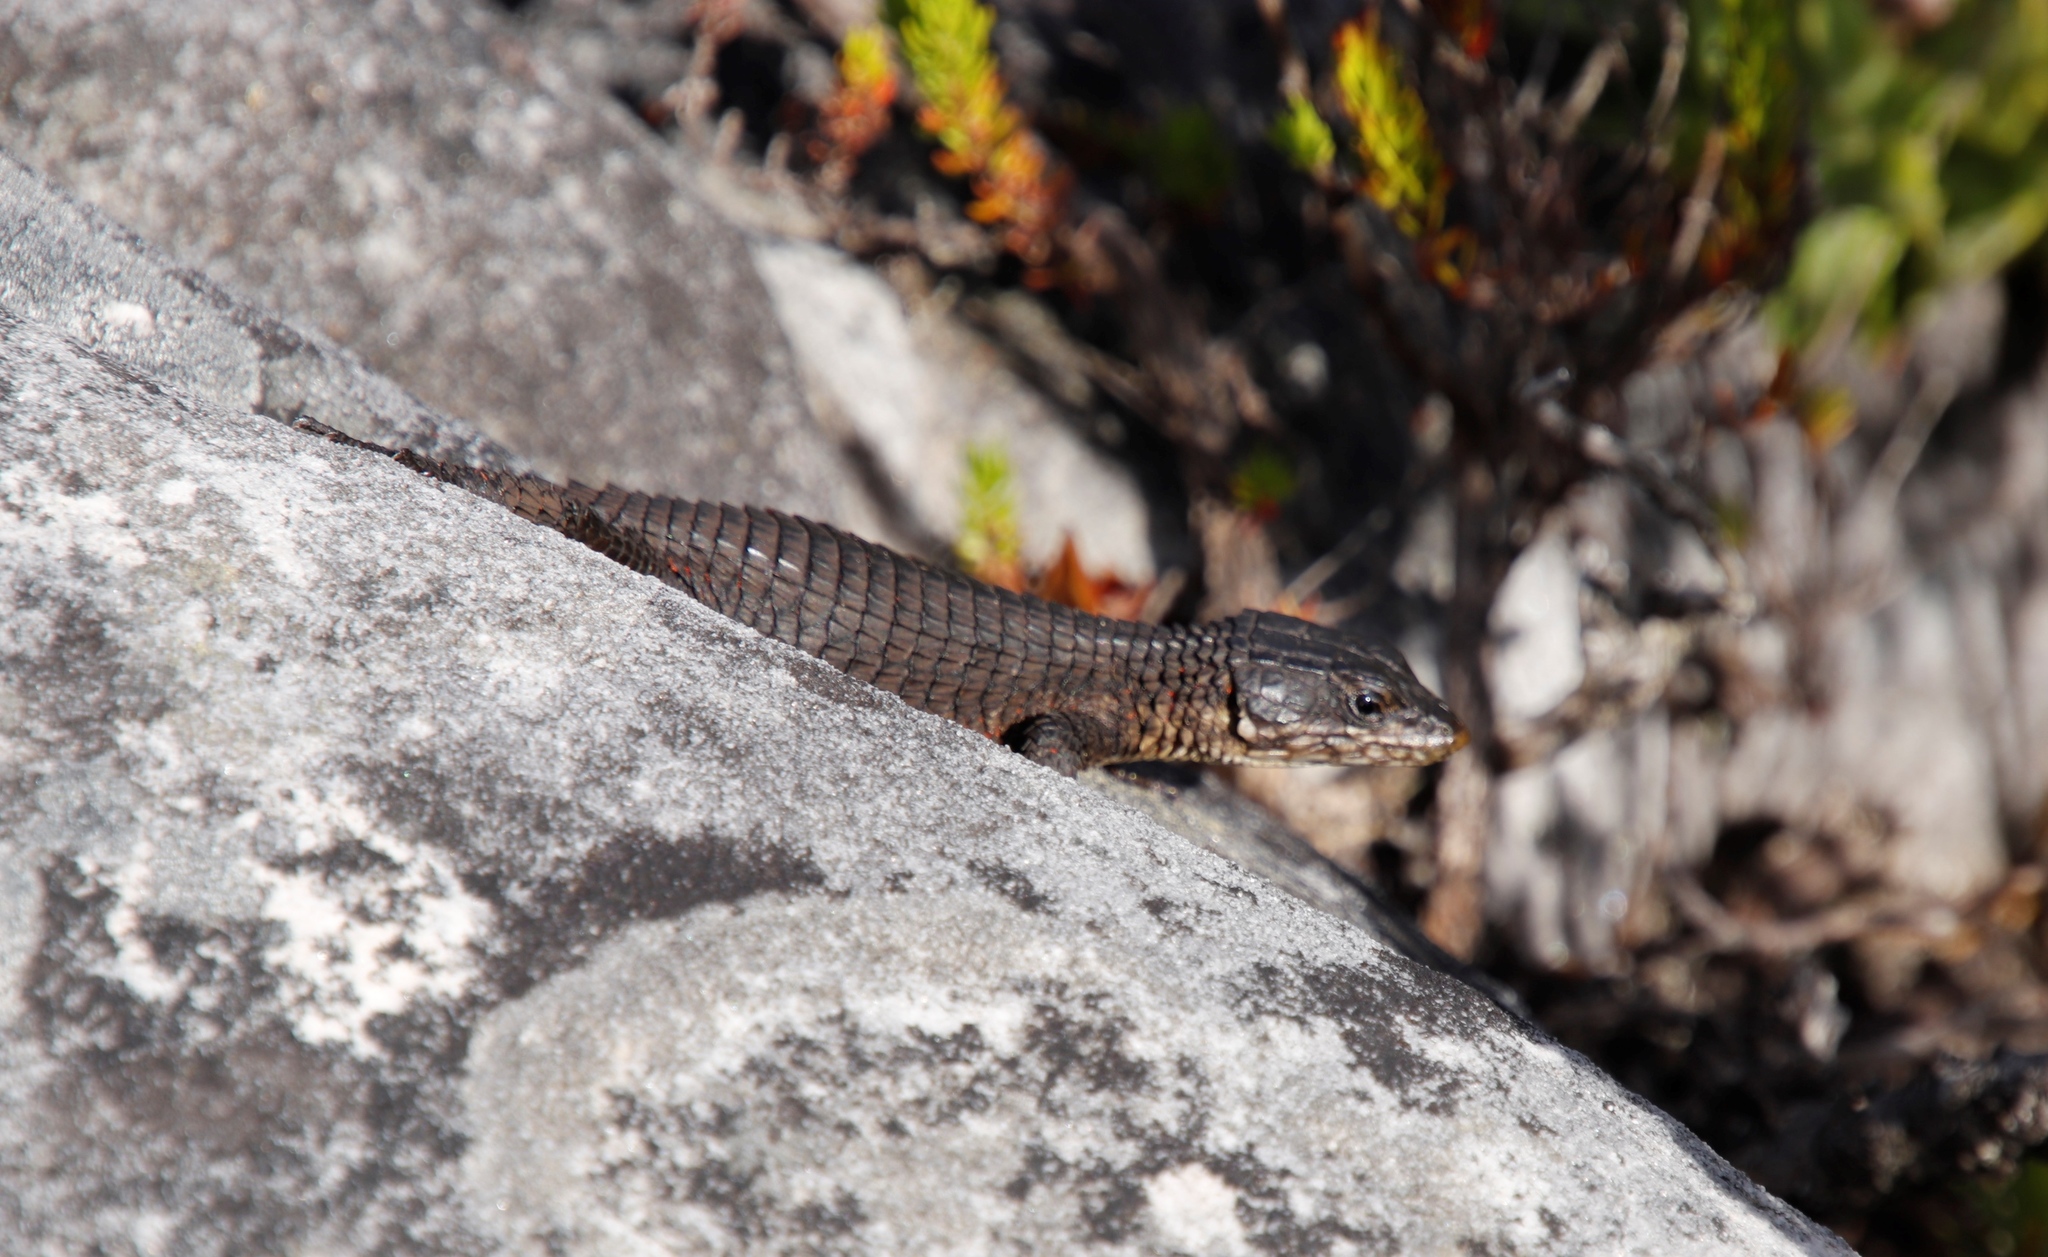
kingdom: Animalia
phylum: Chordata
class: Squamata
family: Cordylidae
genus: Cordylus
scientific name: Cordylus niger
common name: Black girdled lizard
